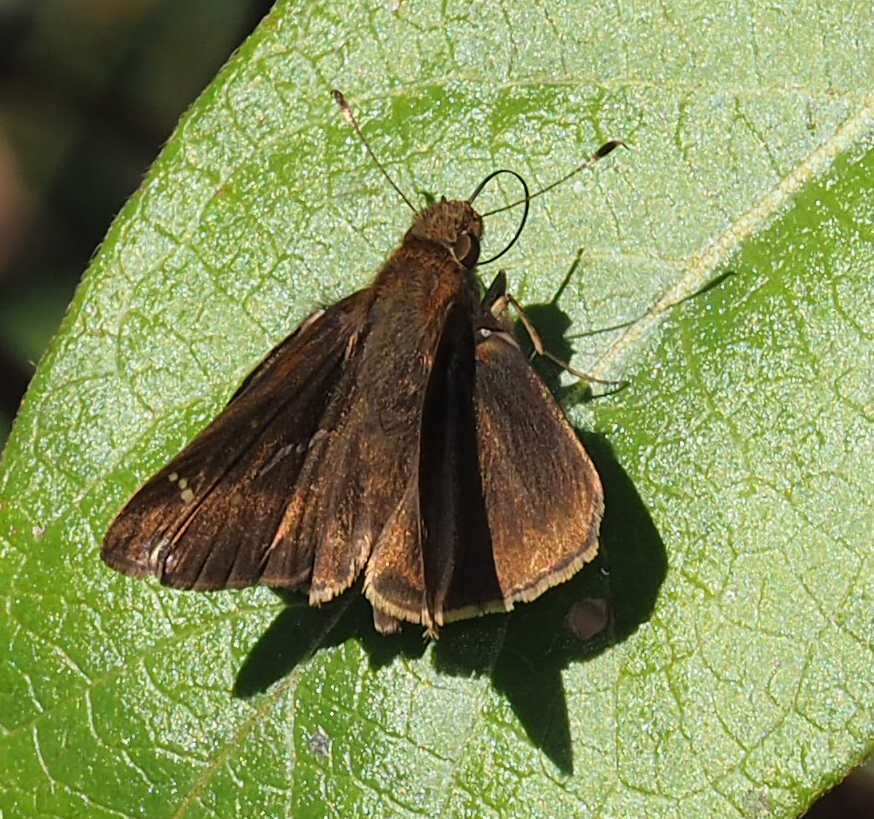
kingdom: Animalia
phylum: Arthropoda
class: Insecta
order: Lepidoptera
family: Hesperiidae
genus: Lerema
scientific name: Lerema accius
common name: Clouded skipper
